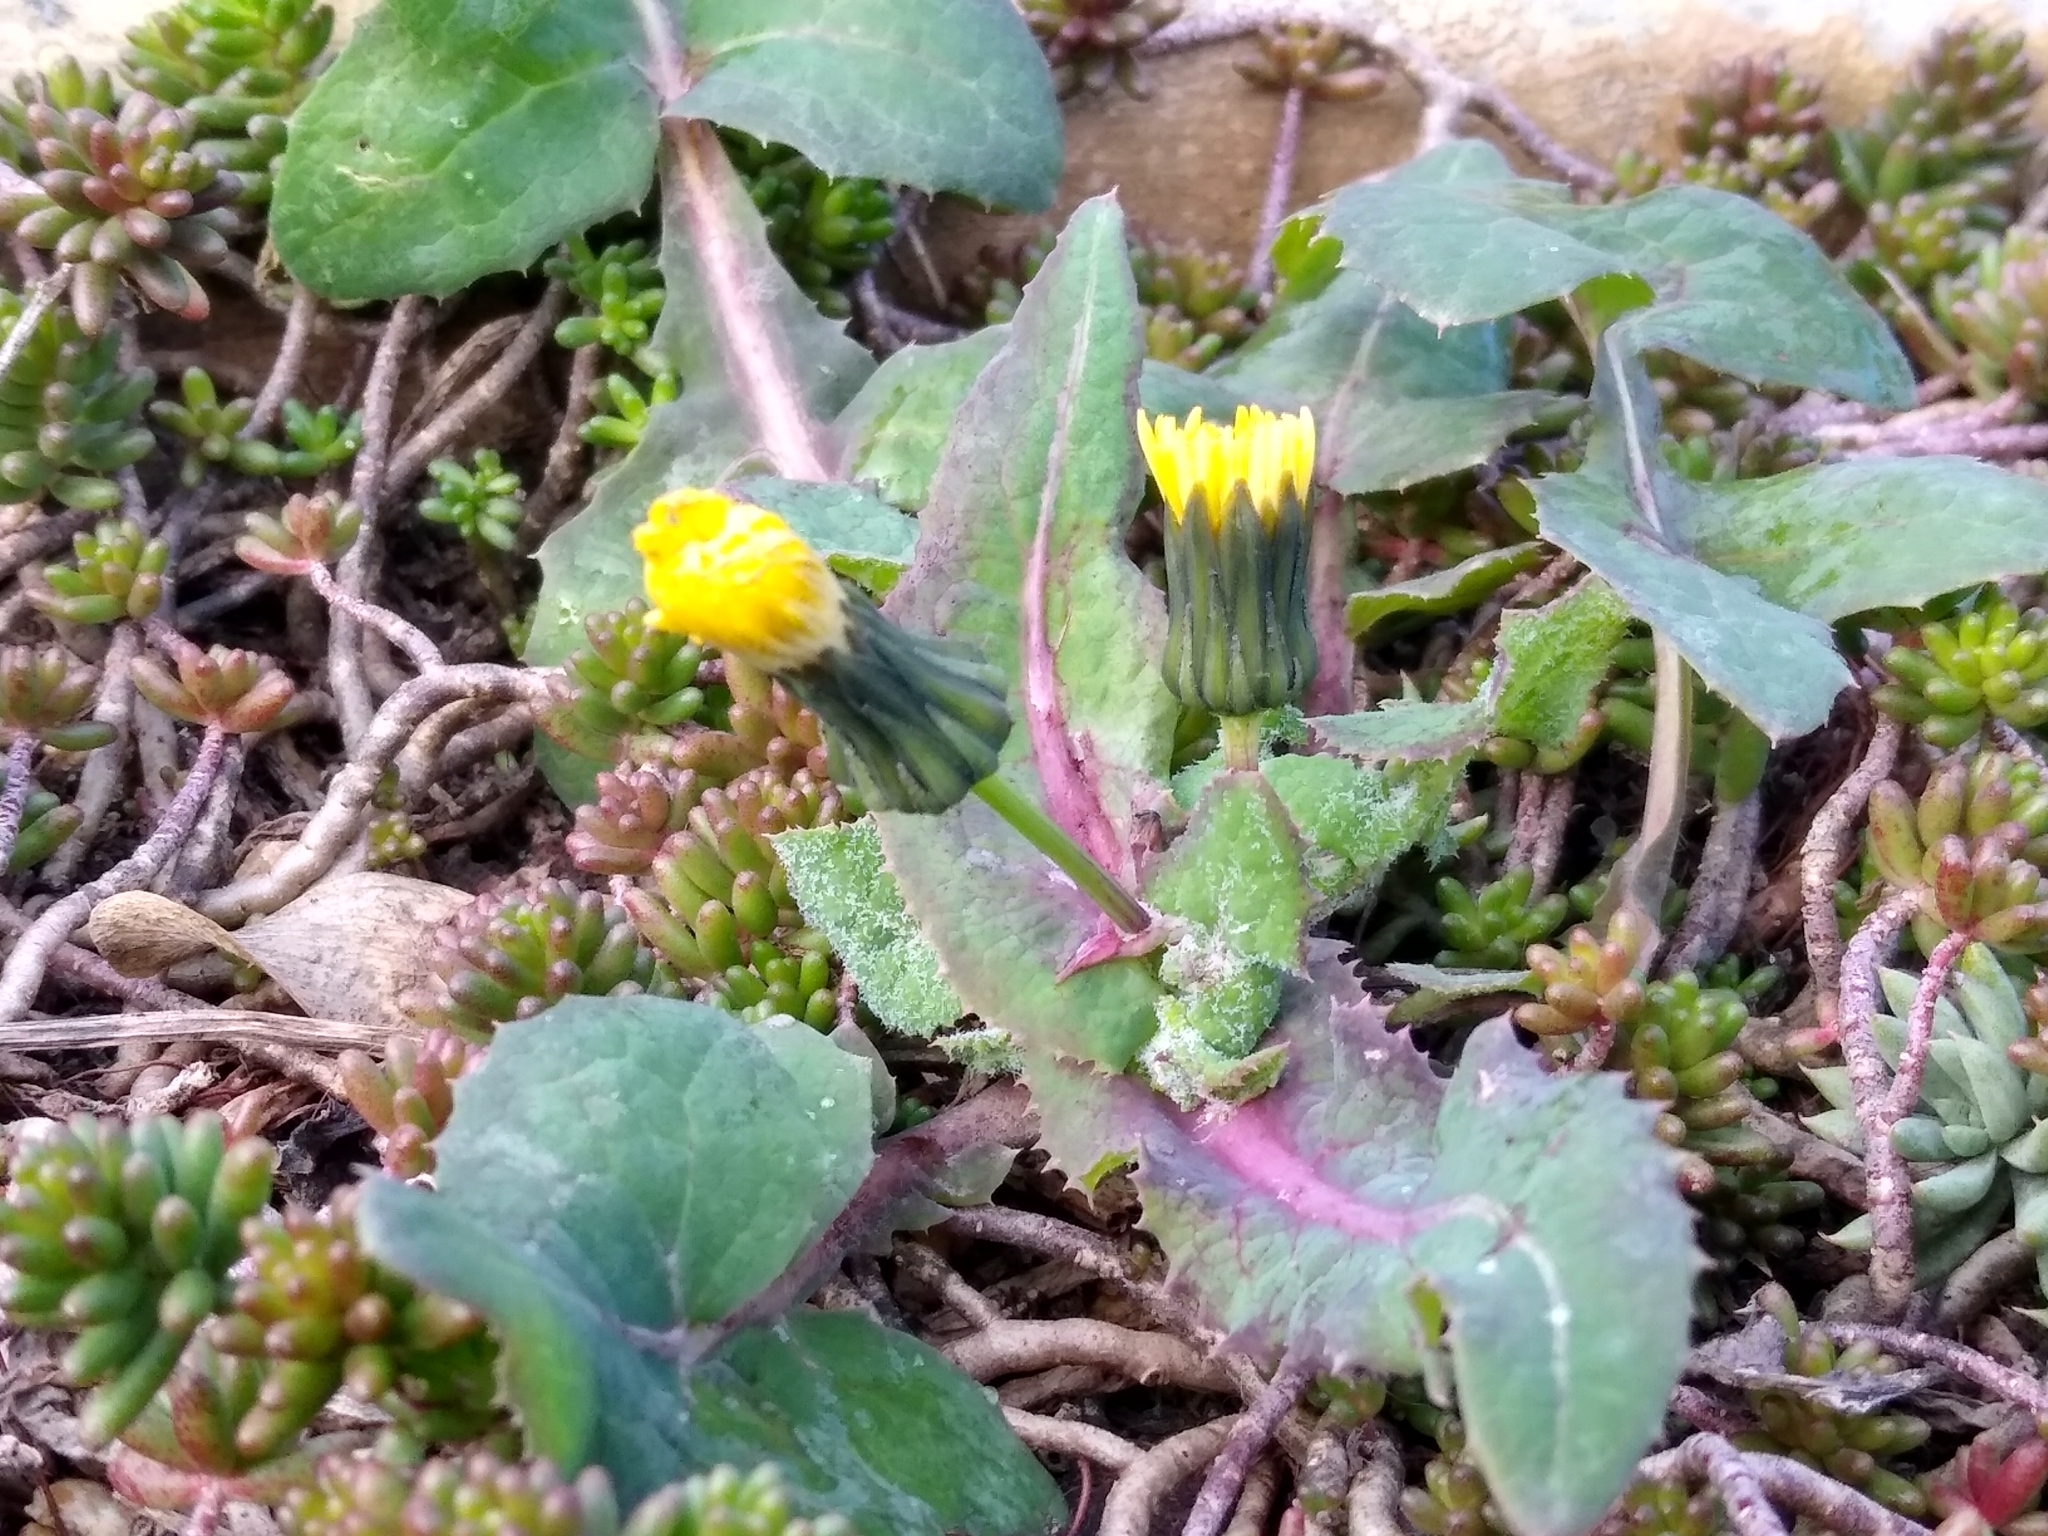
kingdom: Plantae
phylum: Tracheophyta
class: Magnoliopsida
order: Asterales
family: Asteraceae
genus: Sonchus
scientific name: Sonchus oleraceus
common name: Common sowthistle
